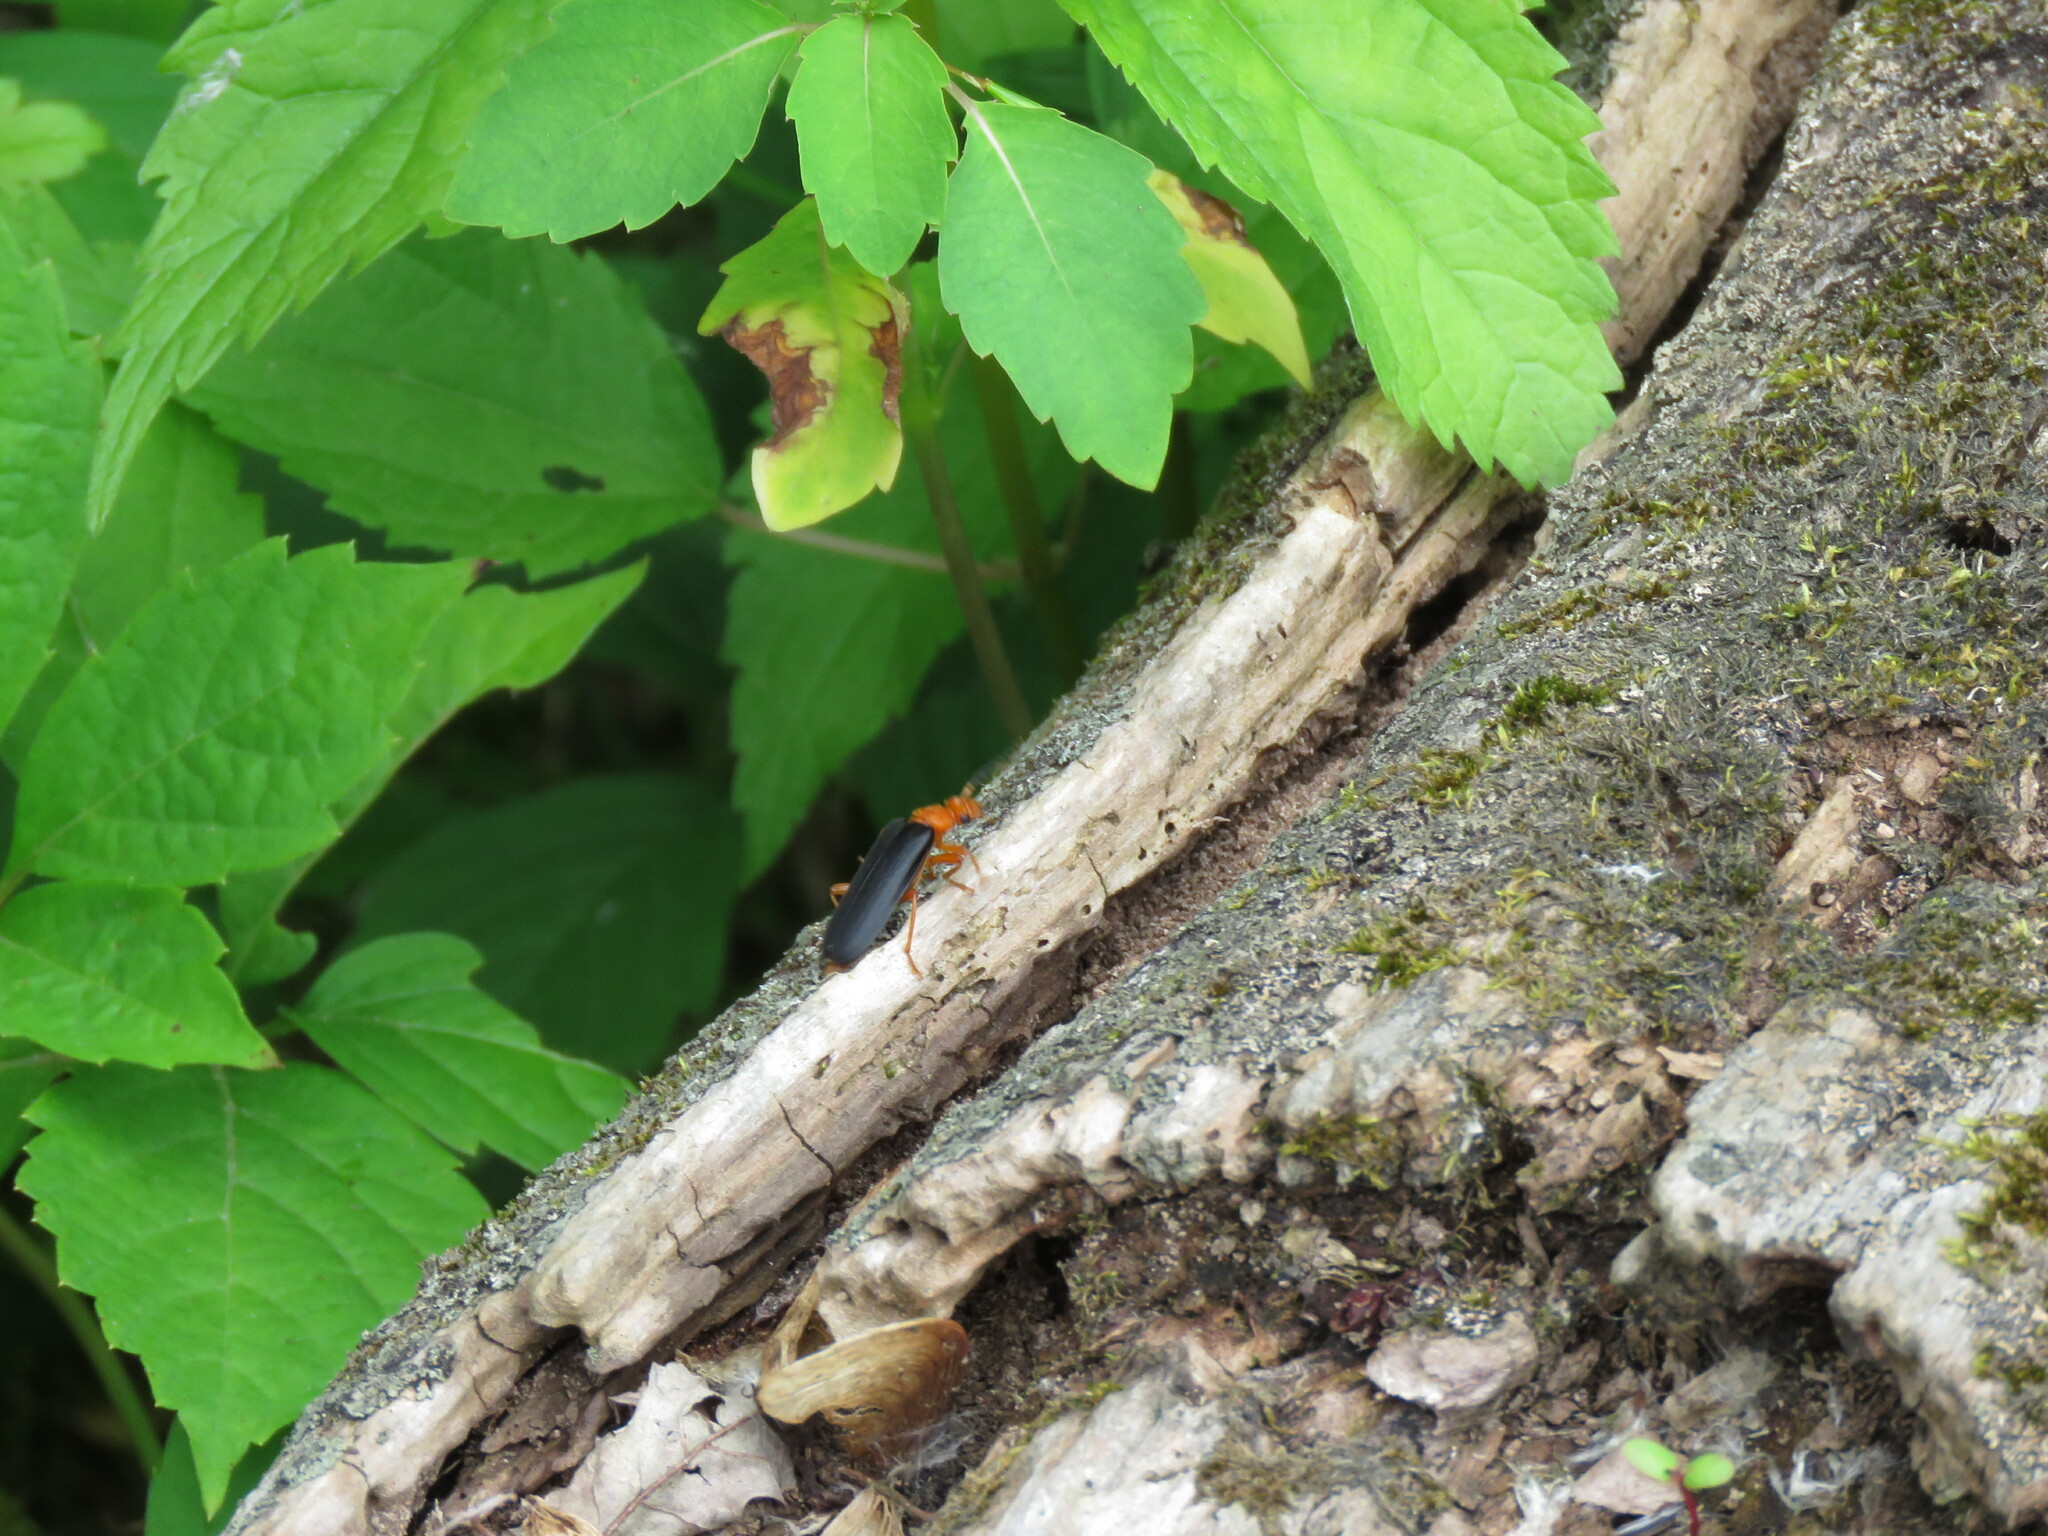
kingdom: Animalia
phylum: Arthropoda
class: Insecta
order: Coleoptera
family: Pyrochroidae
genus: Neopyrochroa
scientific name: Neopyrochroa flabellata
